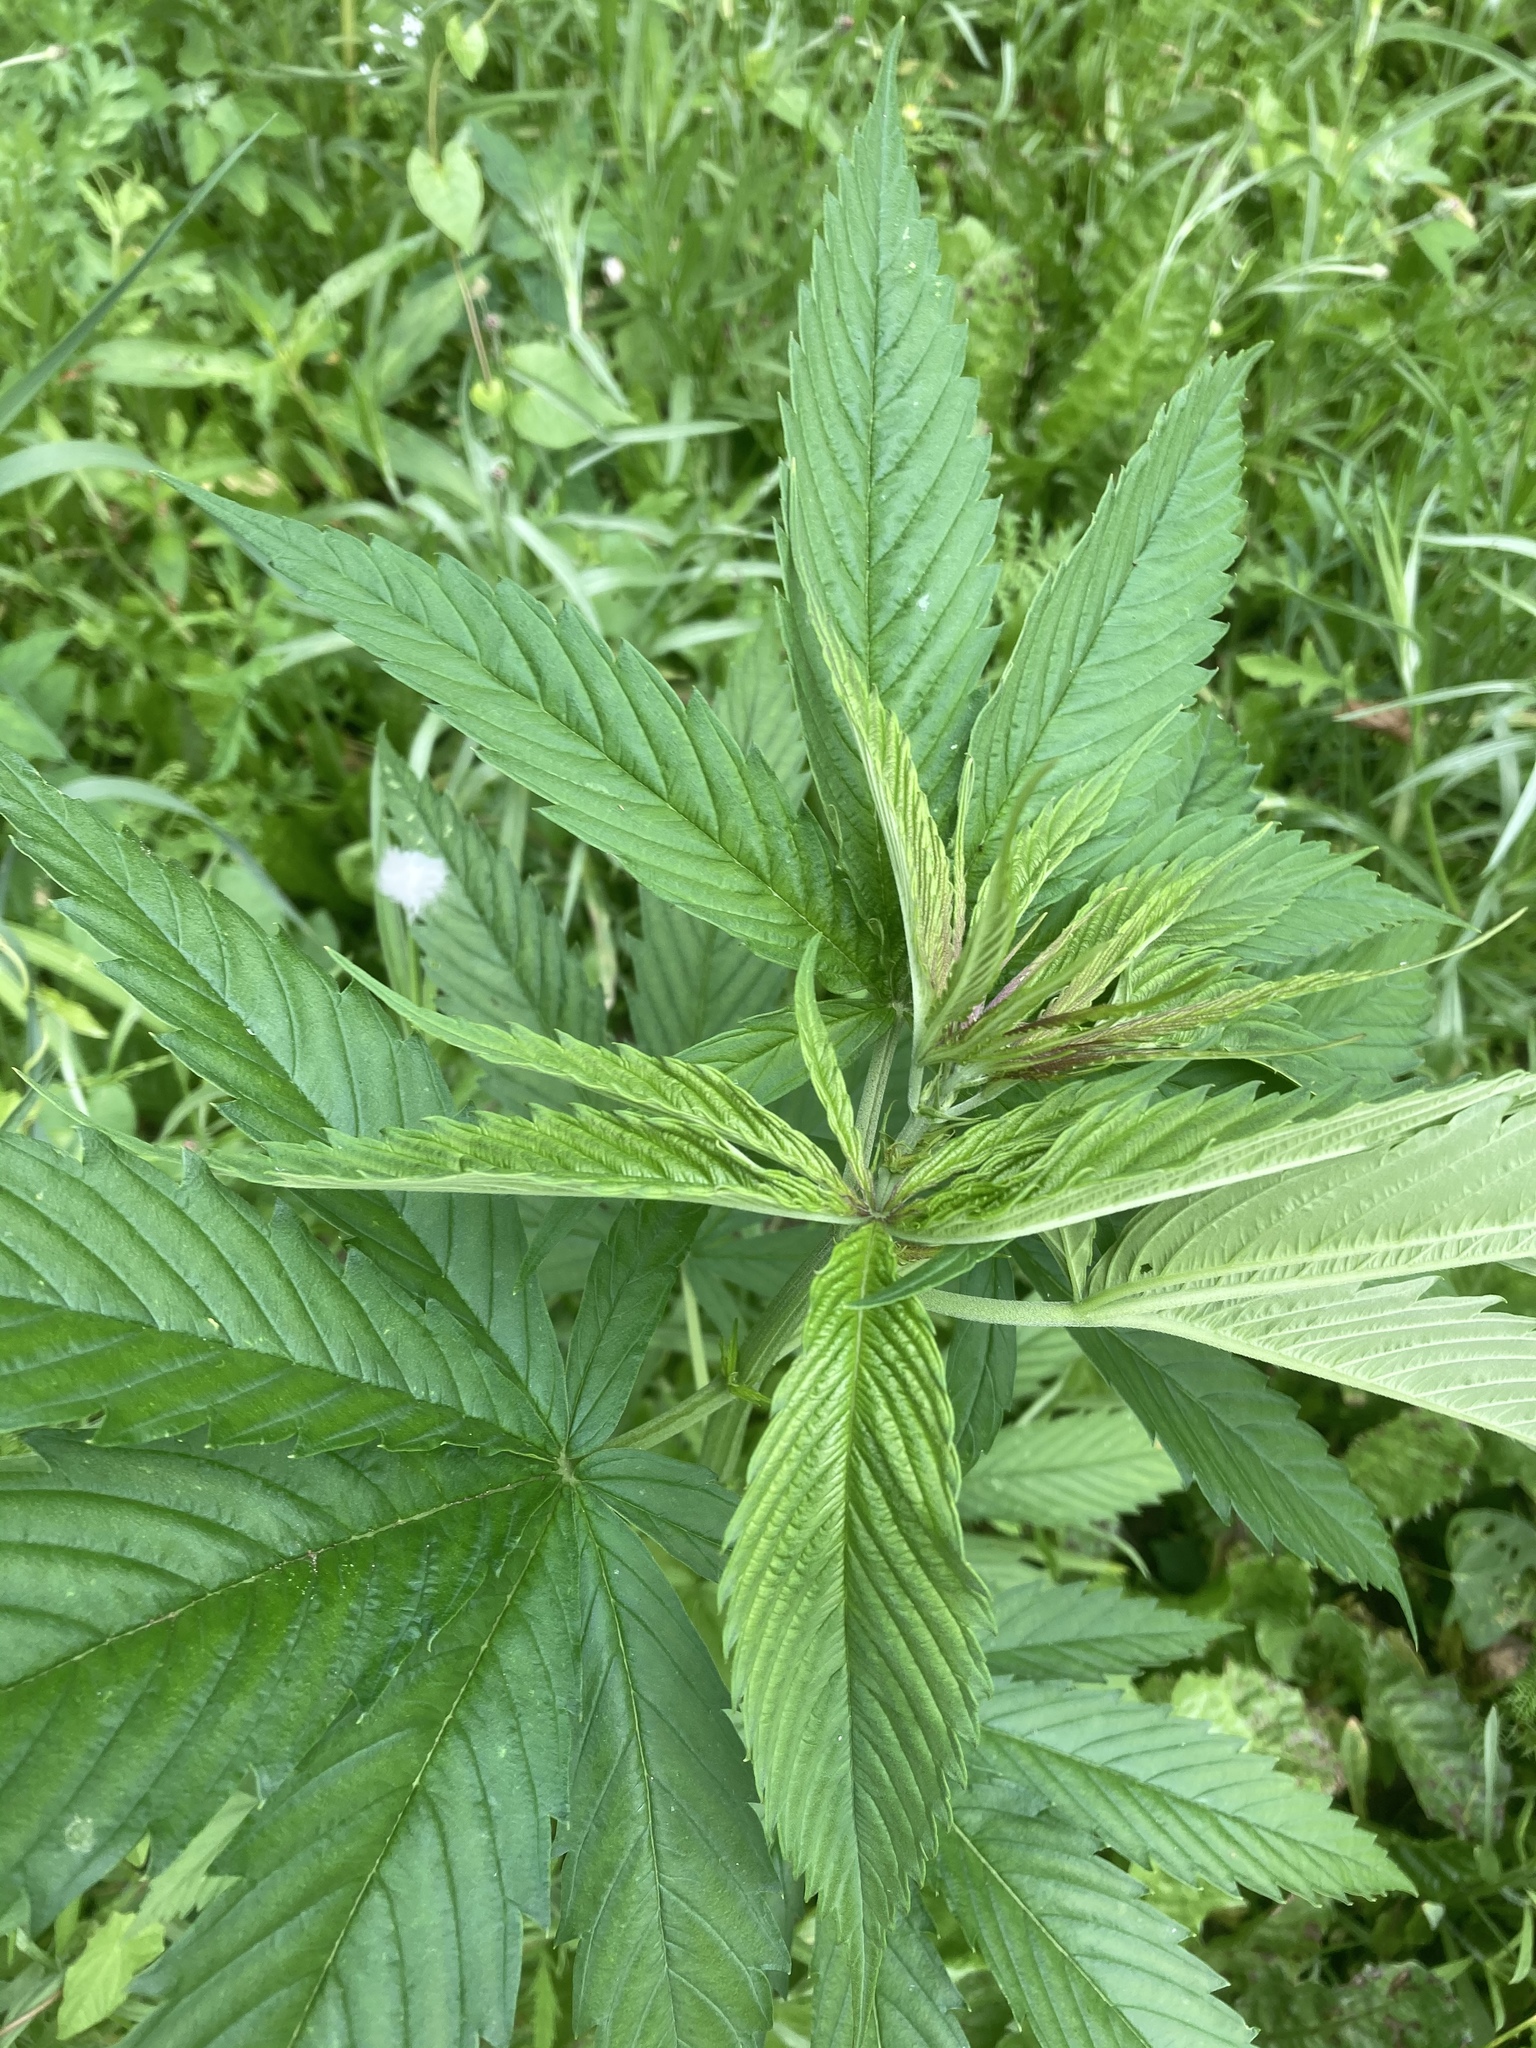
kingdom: Plantae
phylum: Tracheophyta
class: Magnoliopsida
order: Rosales
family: Cannabaceae
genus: Cannabis
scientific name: Cannabis sativa
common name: Hemp
